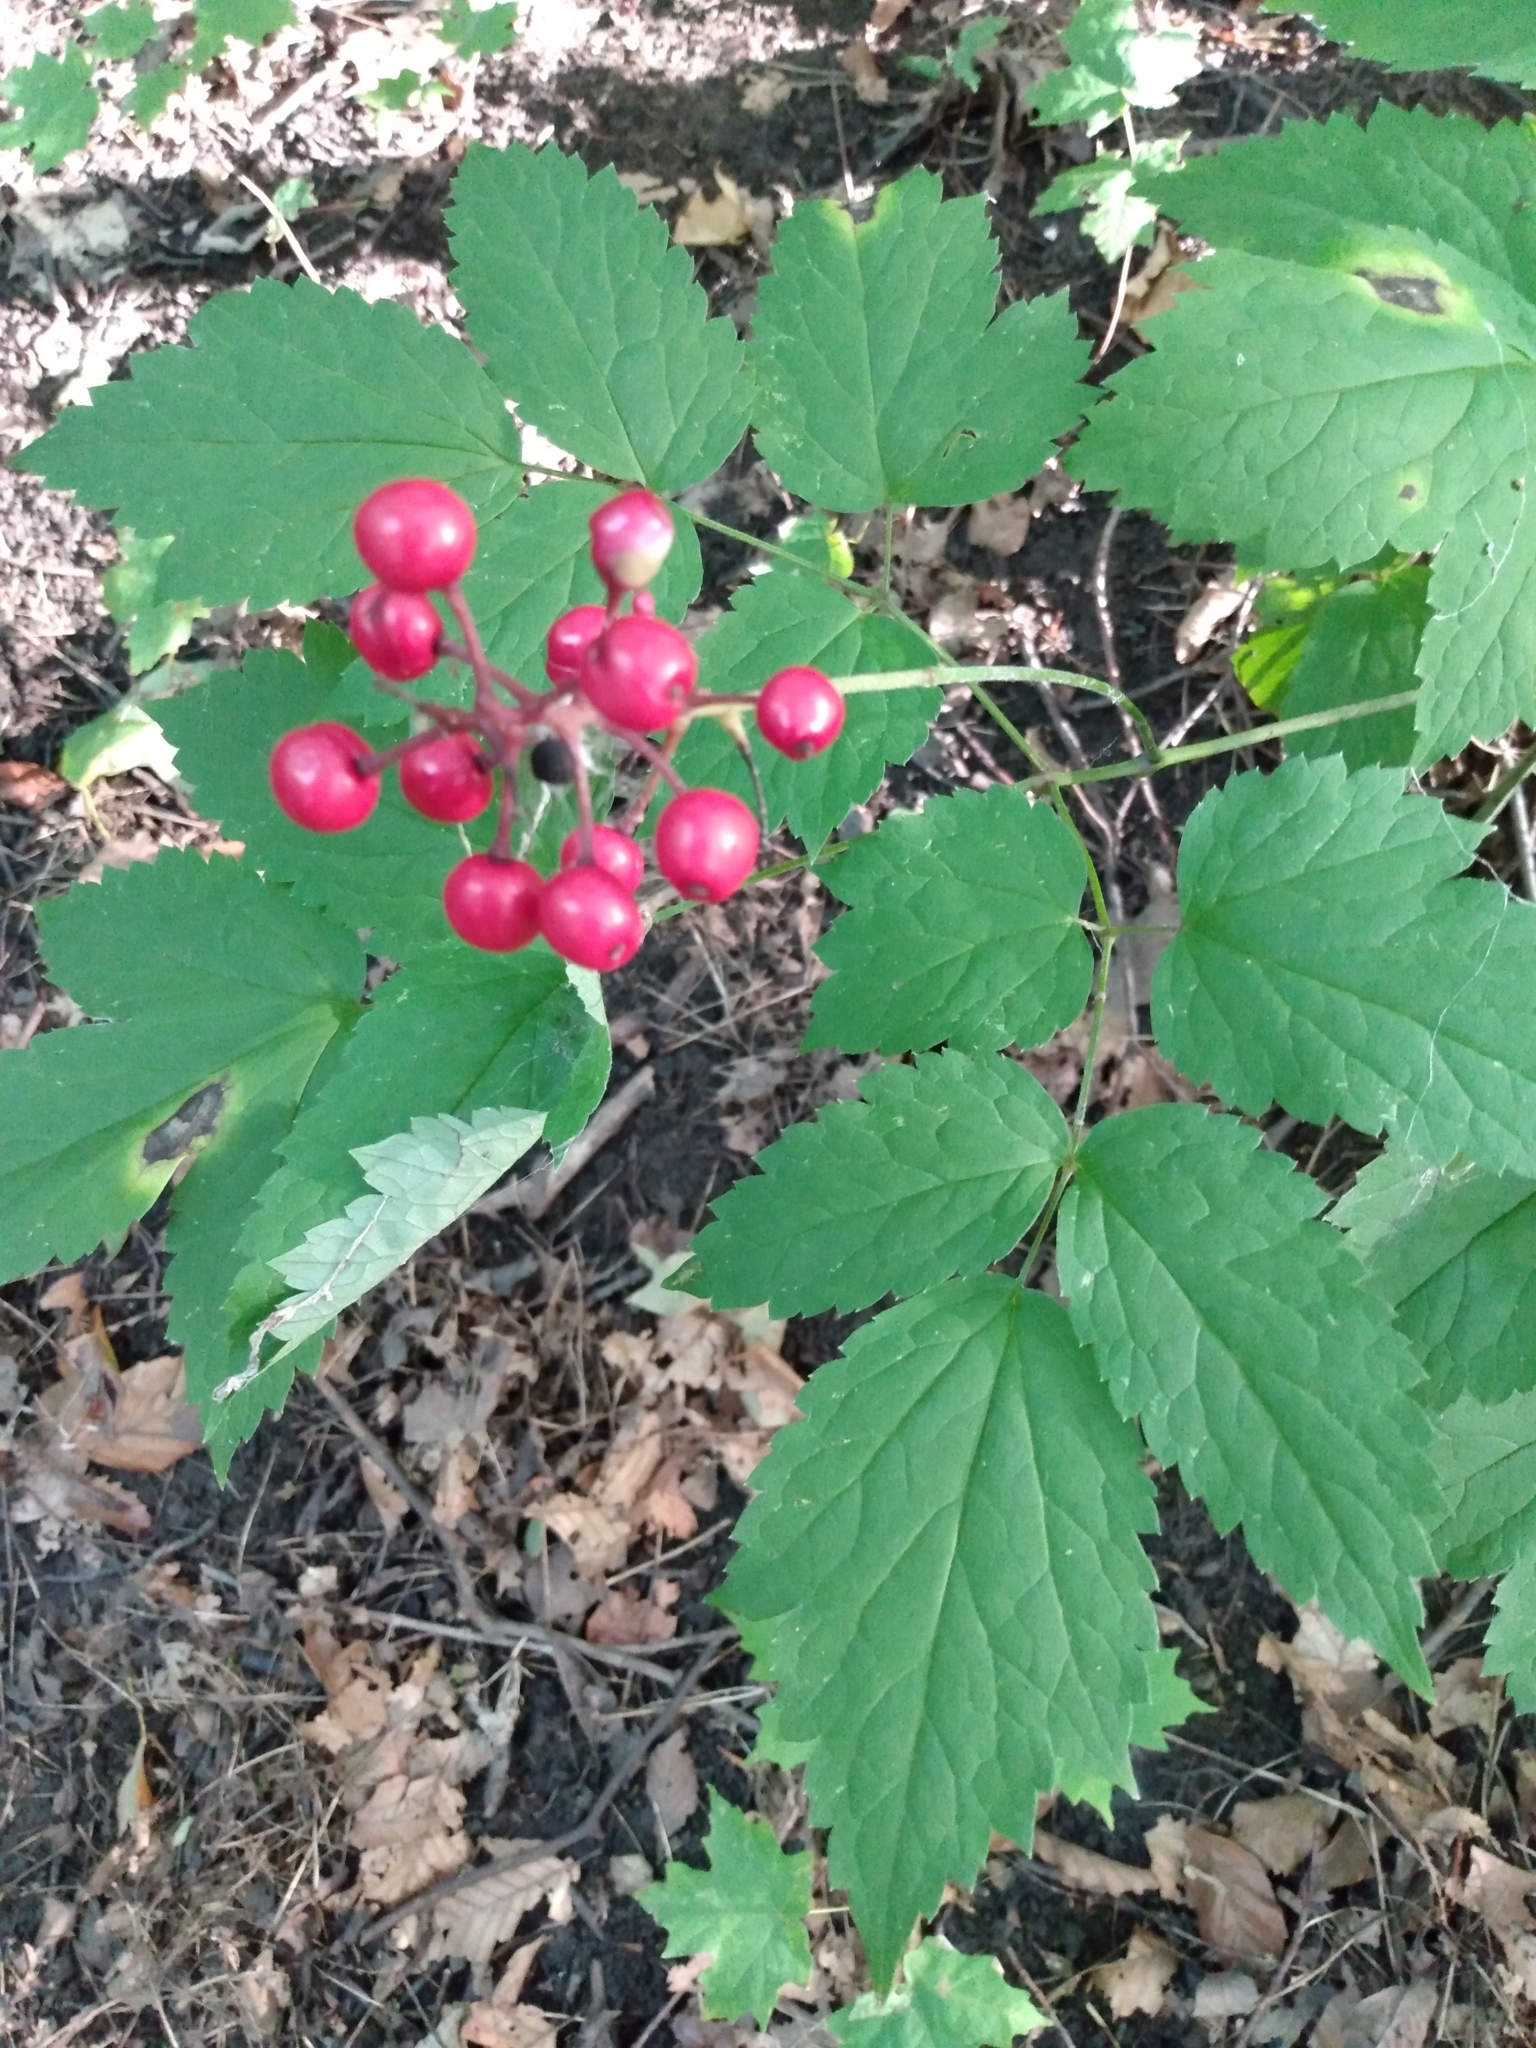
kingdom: Plantae
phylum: Tracheophyta
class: Magnoliopsida
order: Ranunculales
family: Ranunculaceae
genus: Actaea
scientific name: Actaea rubra
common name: Red baneberry
